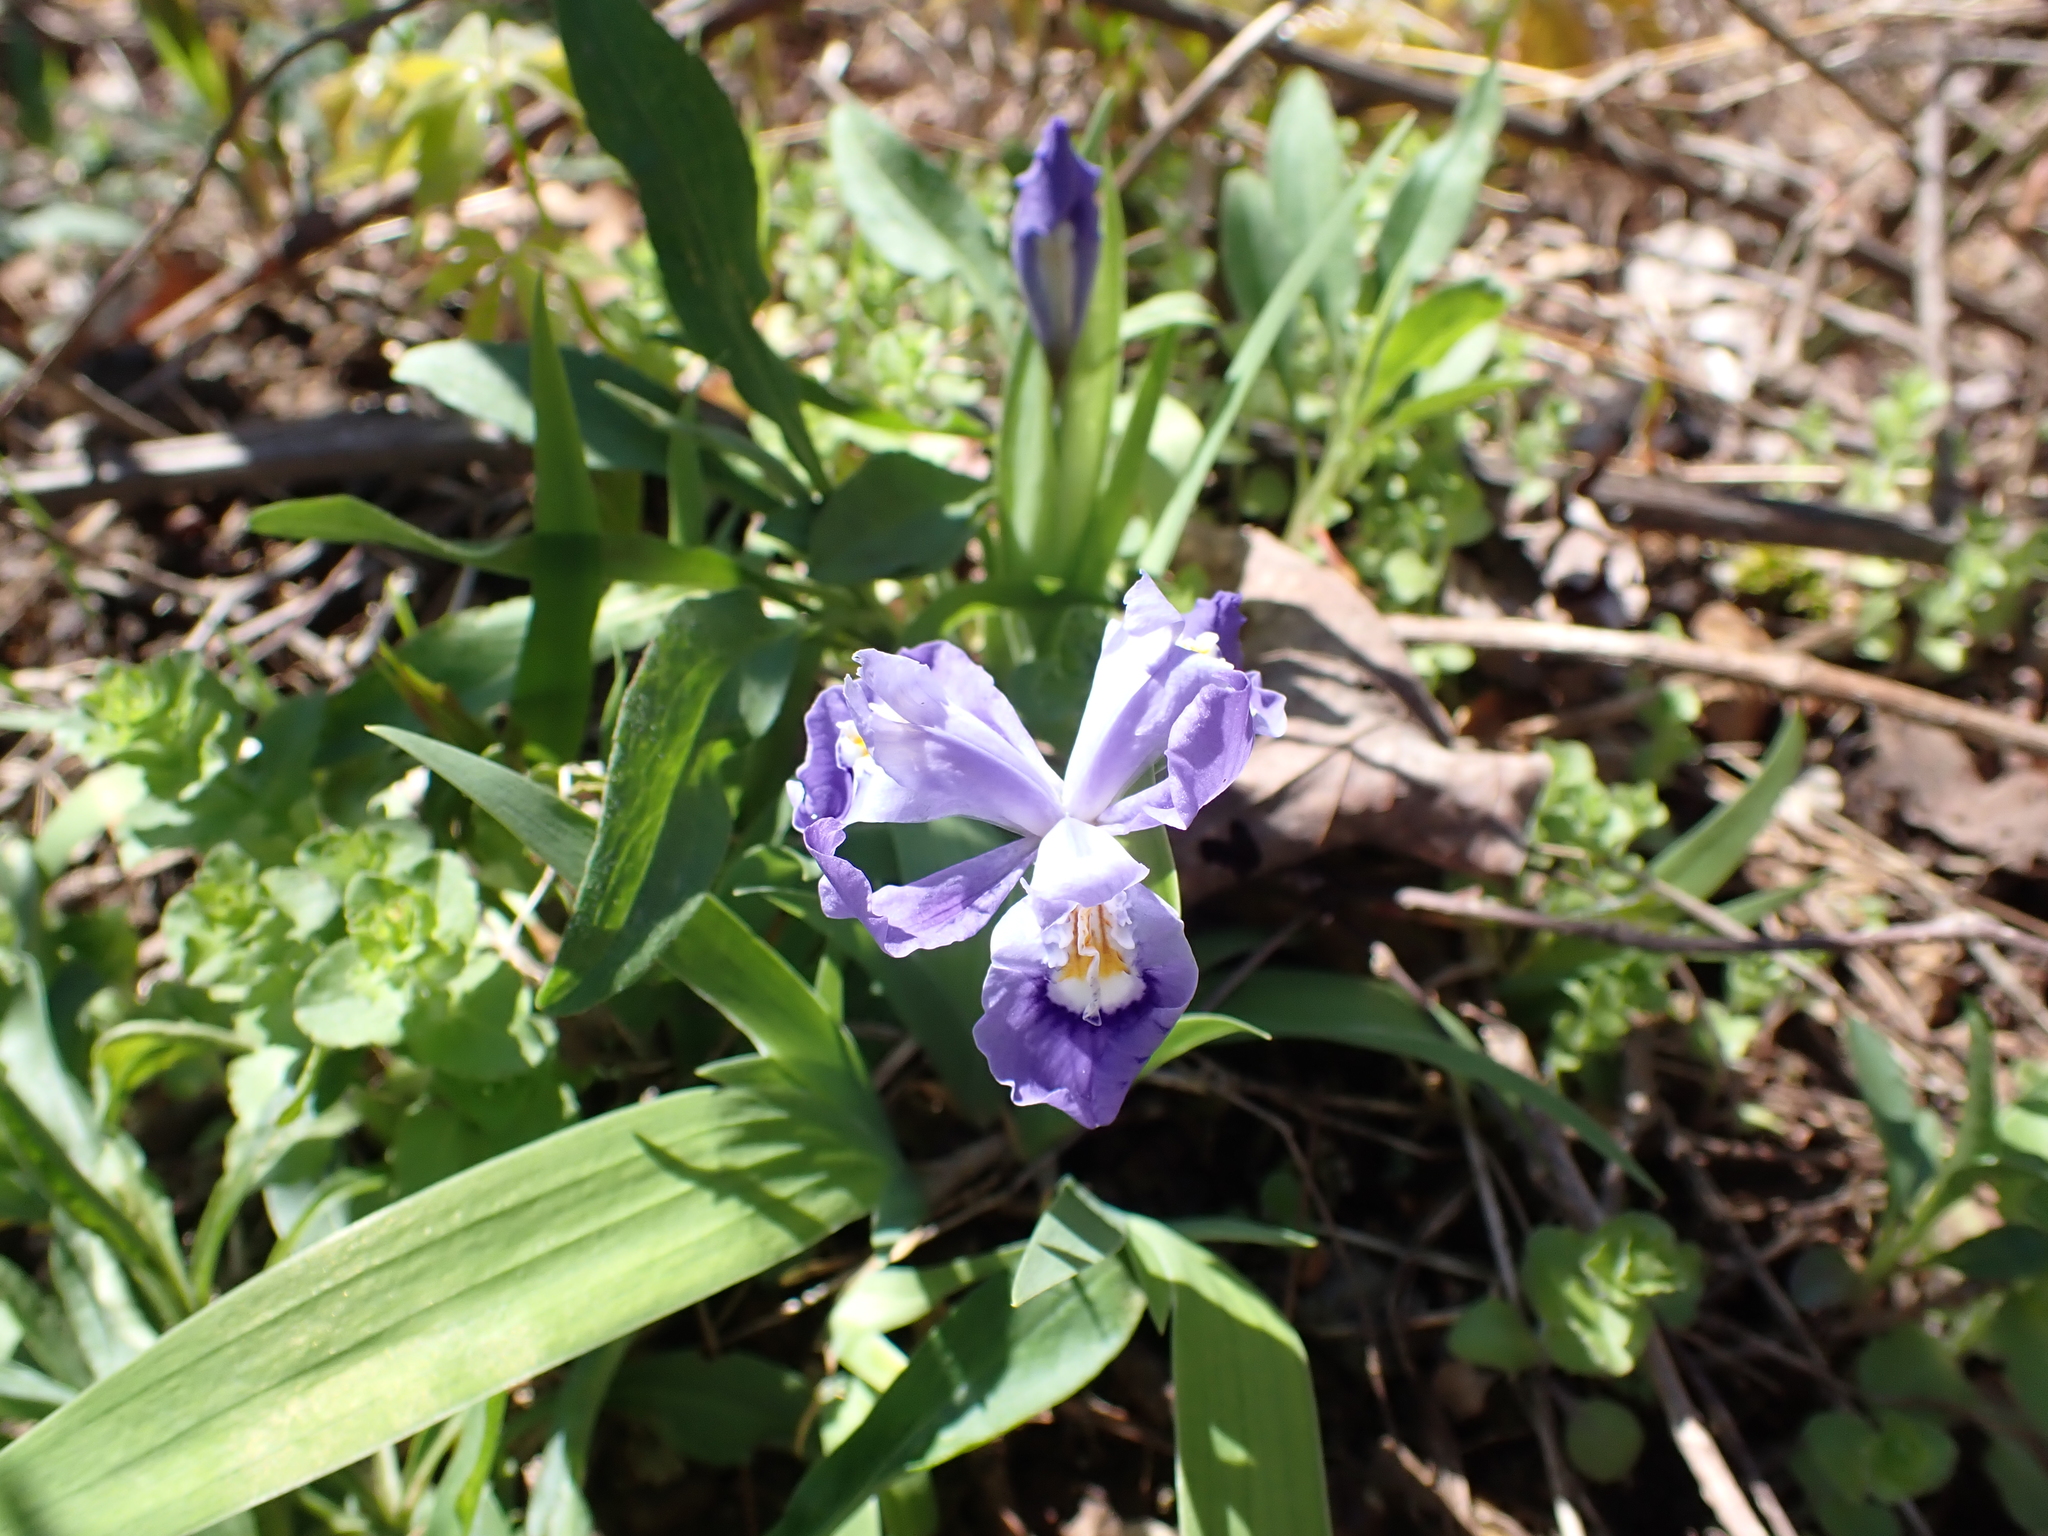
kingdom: Plantae
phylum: Tracheophyta
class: Liliopsida
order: Asparagales
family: Iridaceae
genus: Iris
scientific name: Iris cristata
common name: Crested iris
